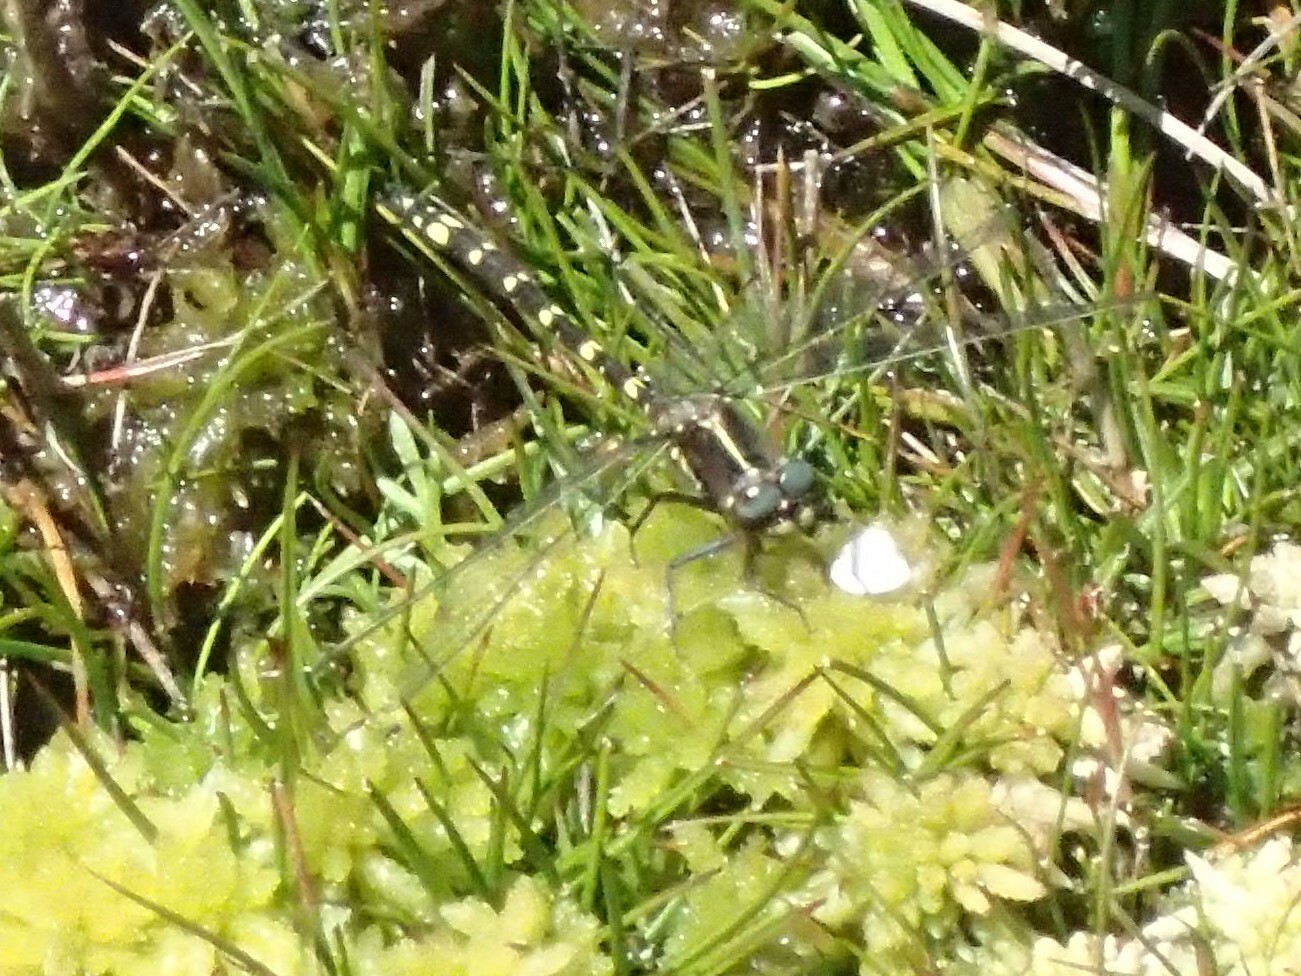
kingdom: Animalia
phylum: Arthropoda
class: Insecta
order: Odonata
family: Synthemistidae
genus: Synthemis
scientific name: Synthemis tasmanica
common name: Tasmanian swamp tigertail
